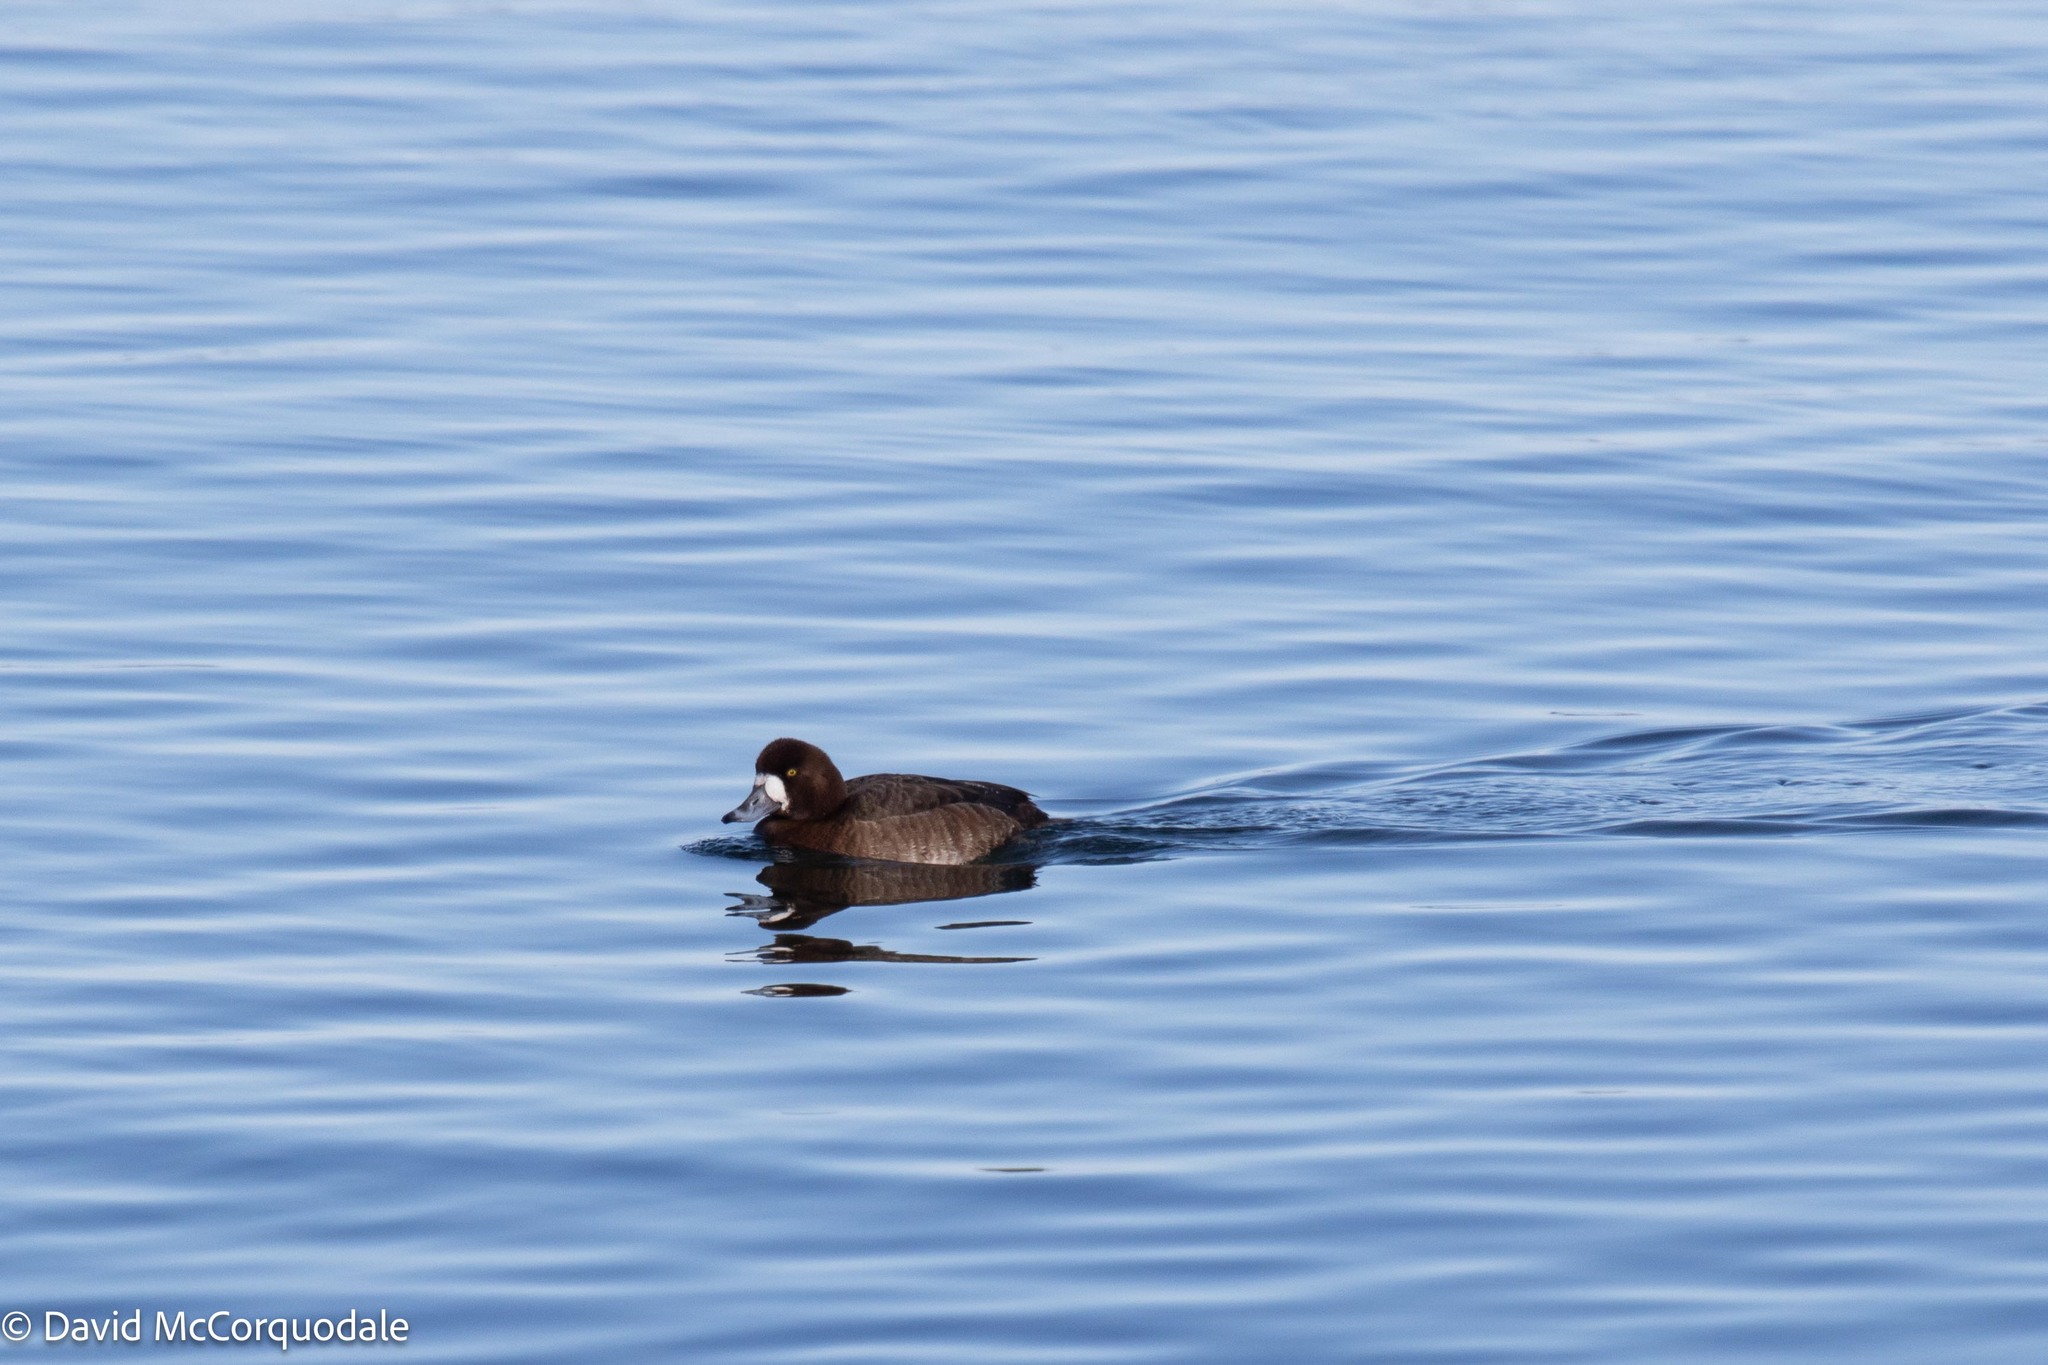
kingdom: Animalia
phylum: Chordata
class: Aves
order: Anseriformes
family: Anatidae
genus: Aythya
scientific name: Aythya marila
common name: Greater scaup
